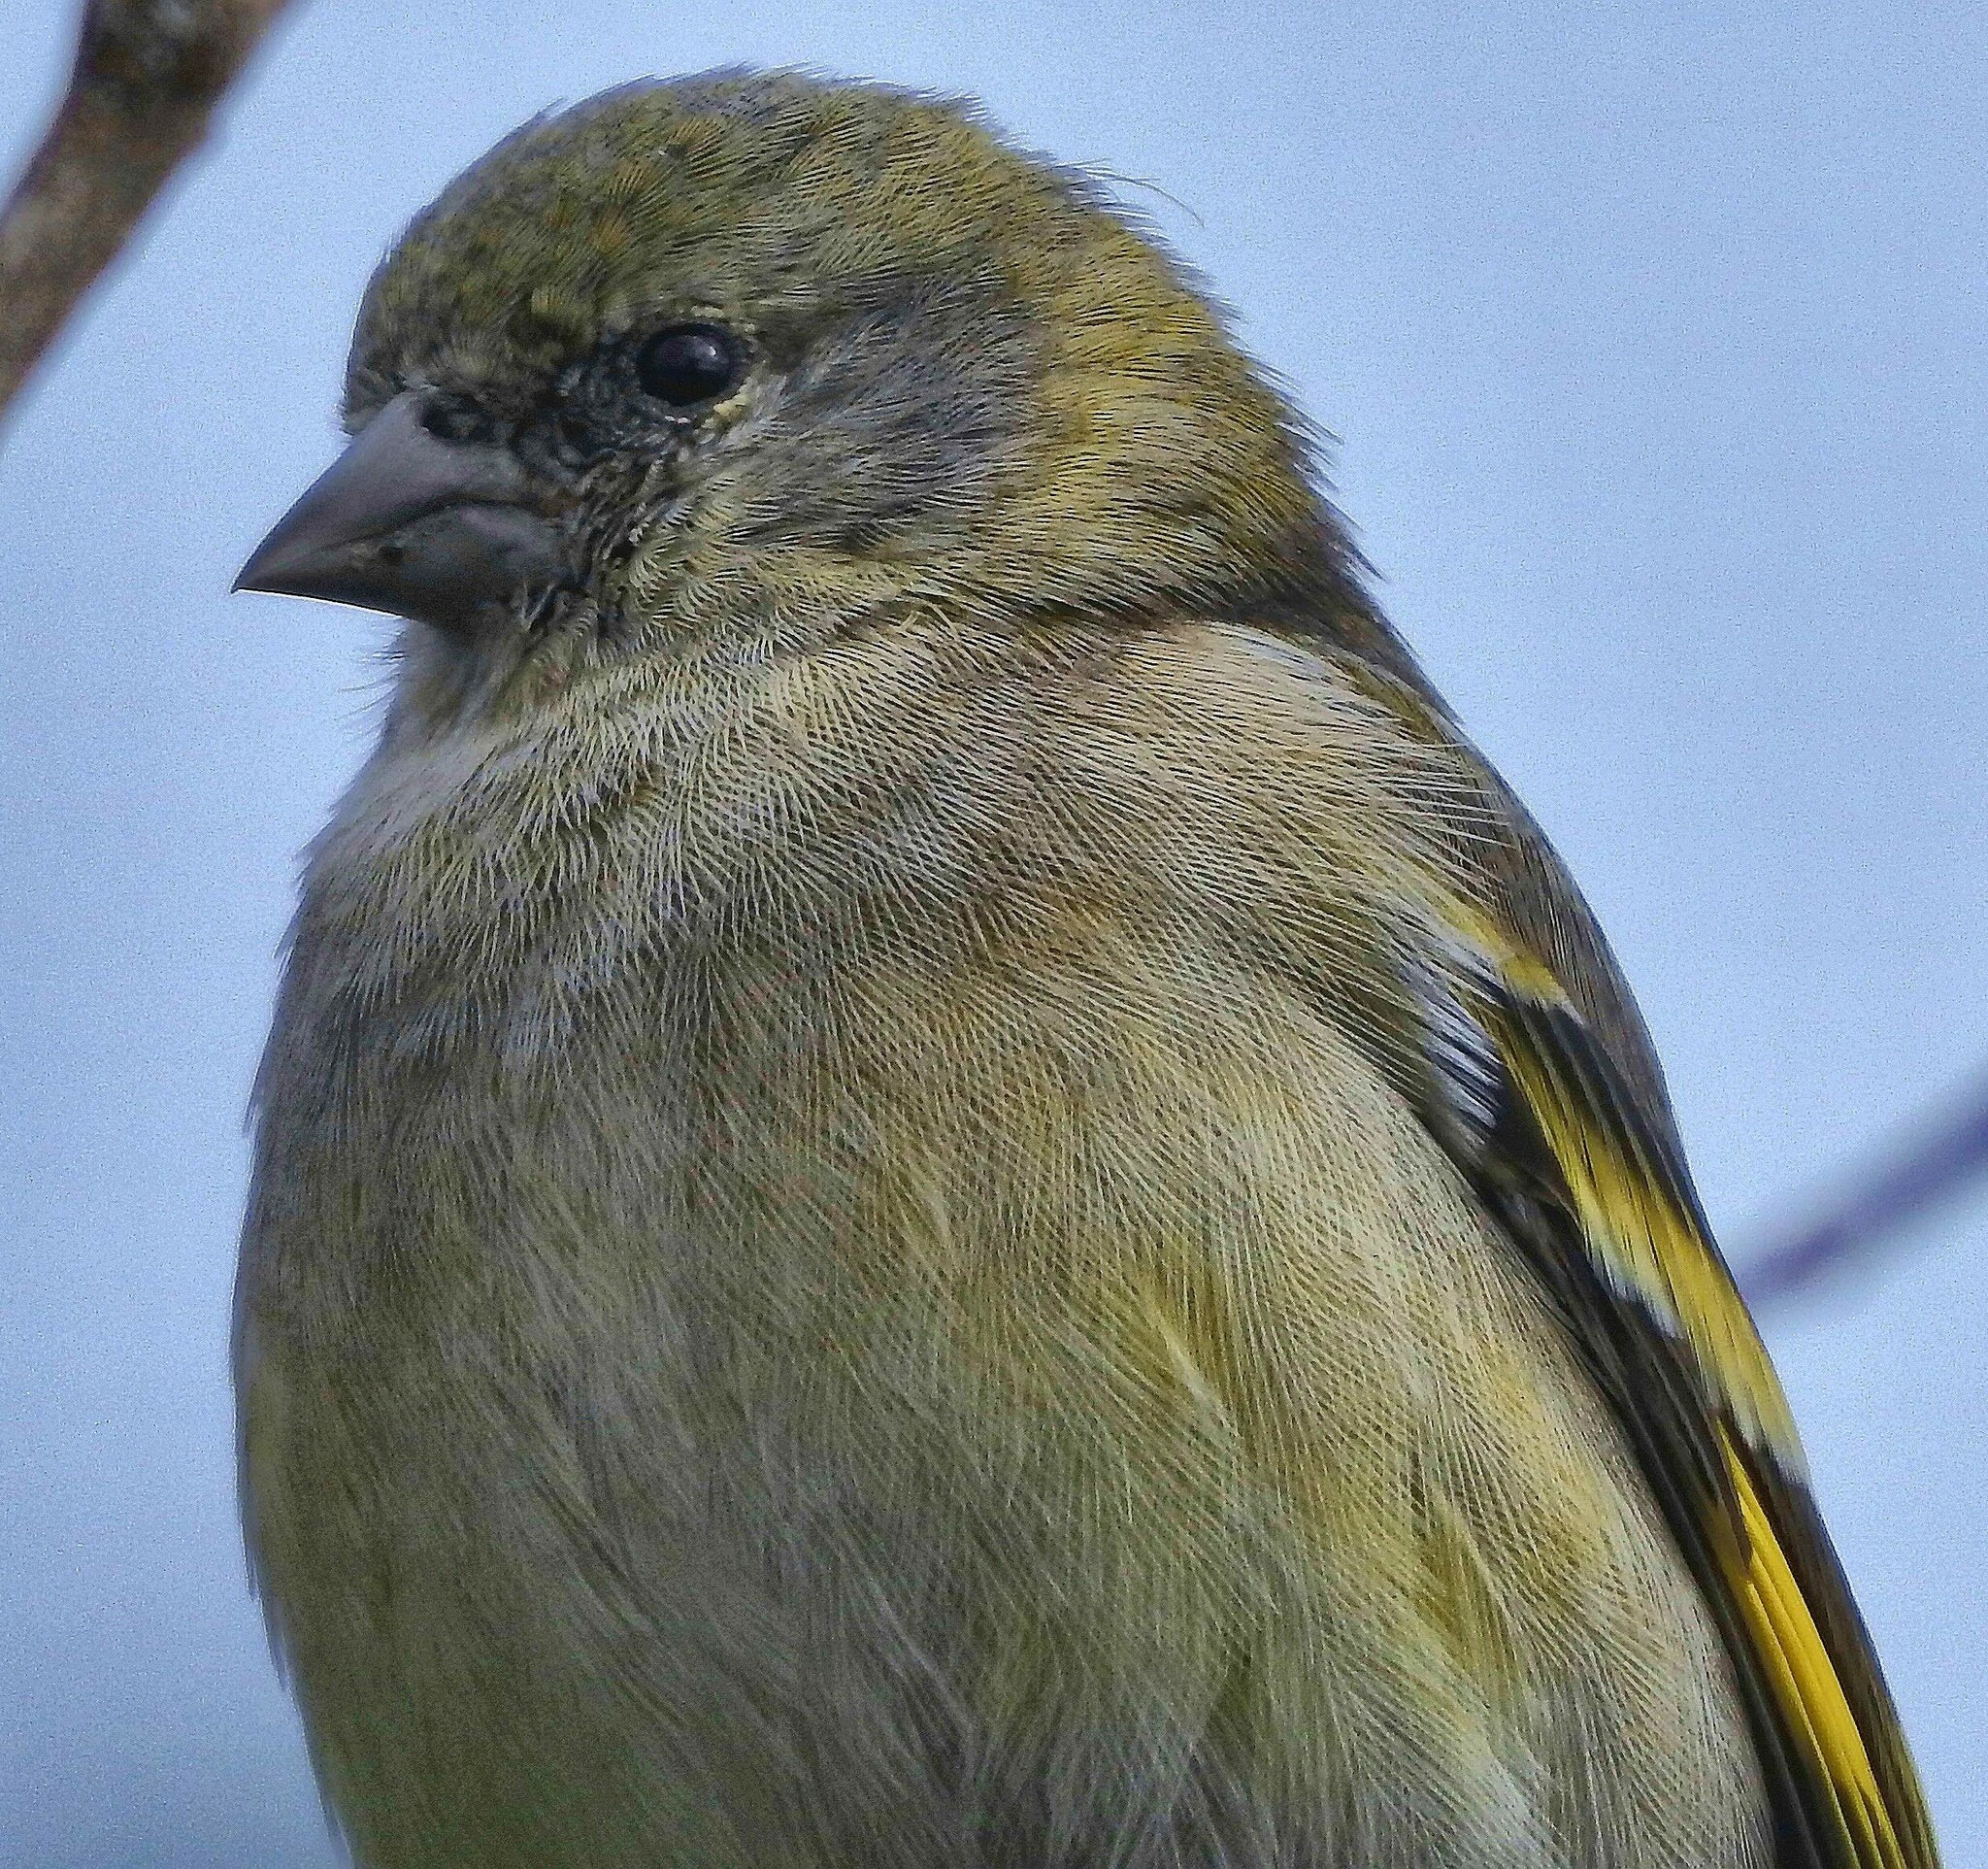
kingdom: Animalia
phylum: Chordata
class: Aves
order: Passeriformes
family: Fringillidae
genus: Spinus
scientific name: Spinus magellanicus
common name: Hooded siskin
